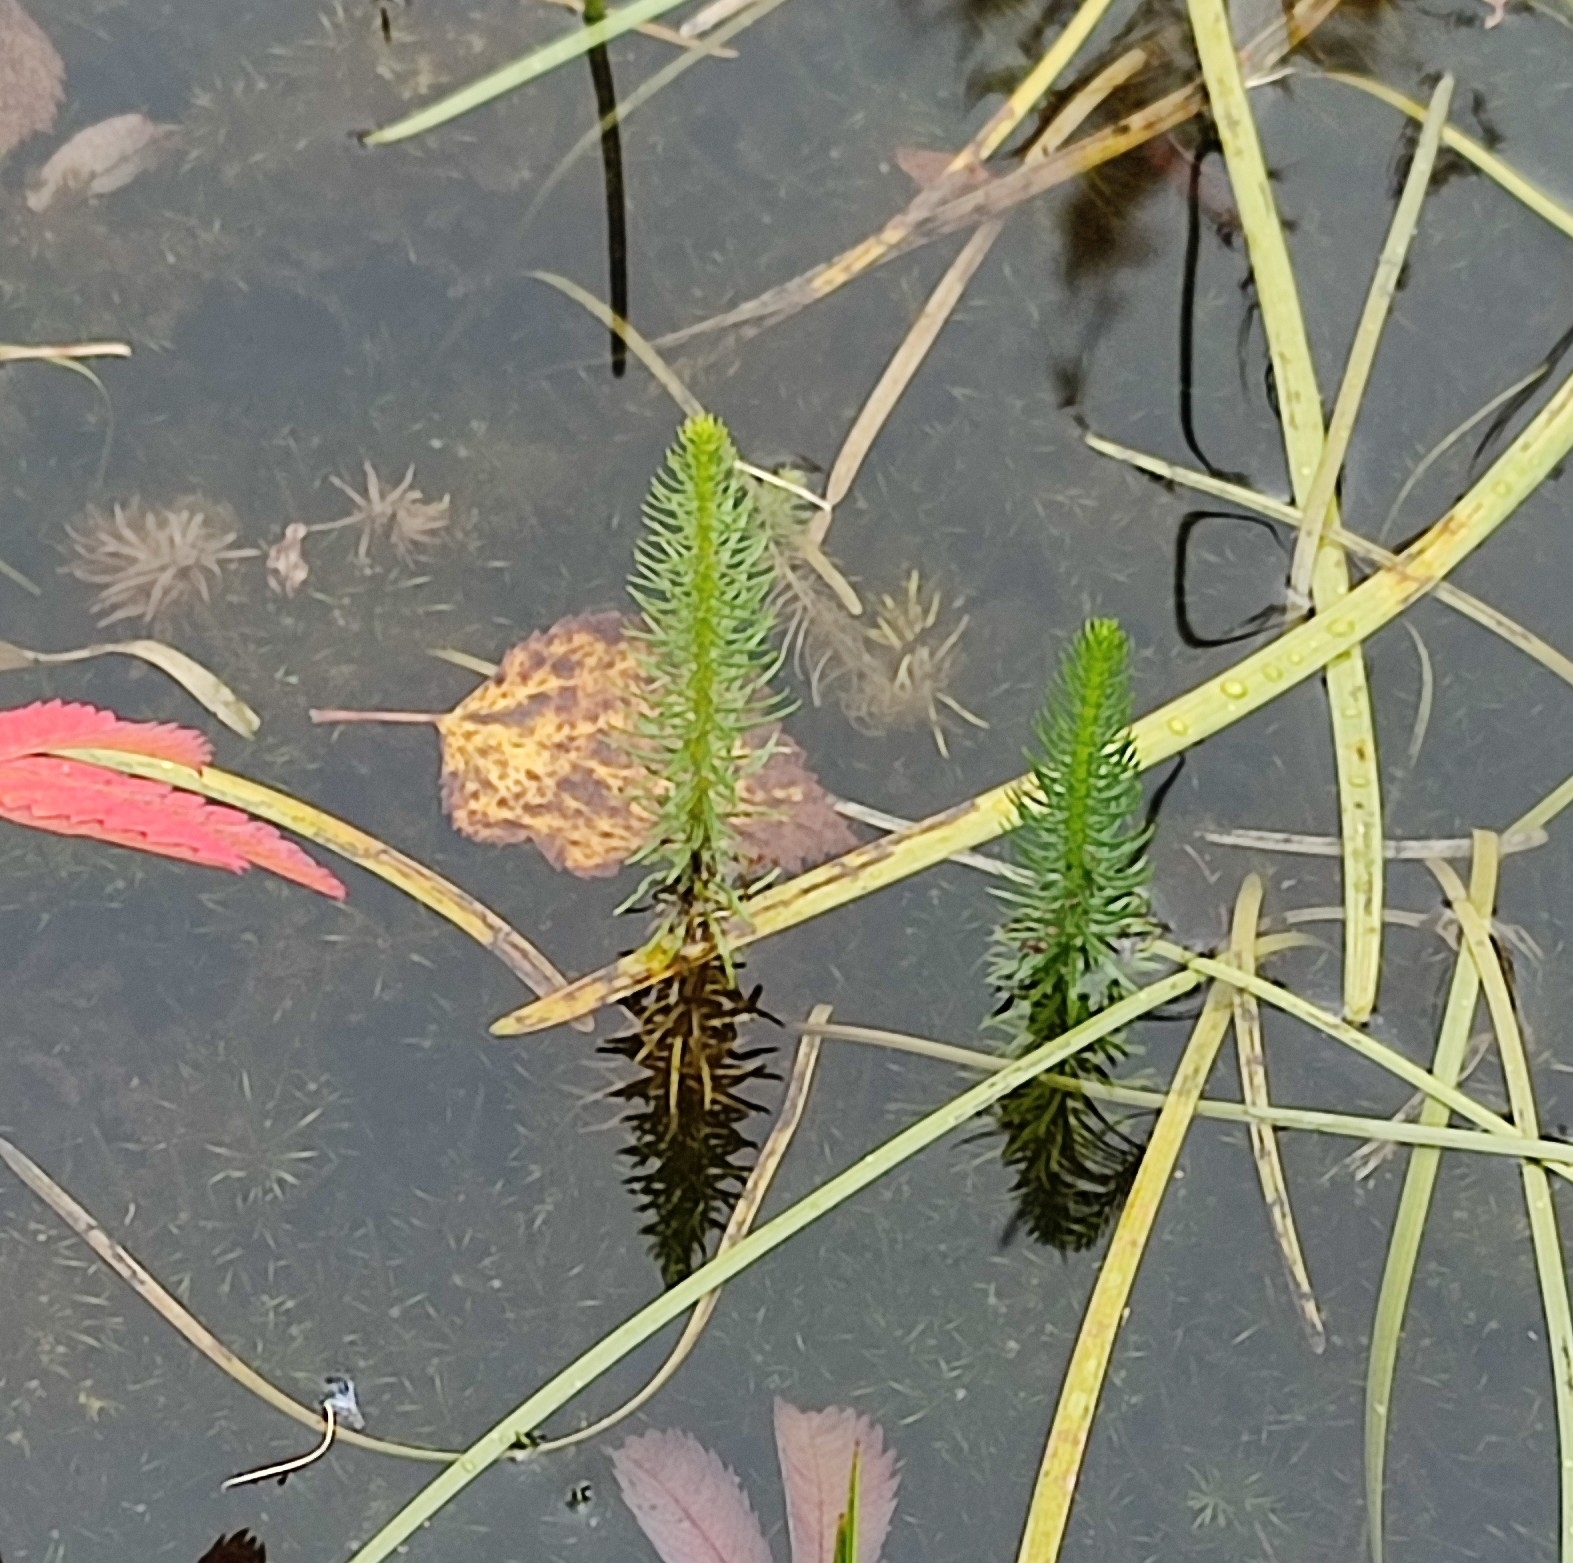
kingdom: Plantae
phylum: Tracheophyta
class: Magnoliopsida
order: Lamiales
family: Plantaginaceae
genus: Hippuris
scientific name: Hippuris vulgaris
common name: Mare's-tail
